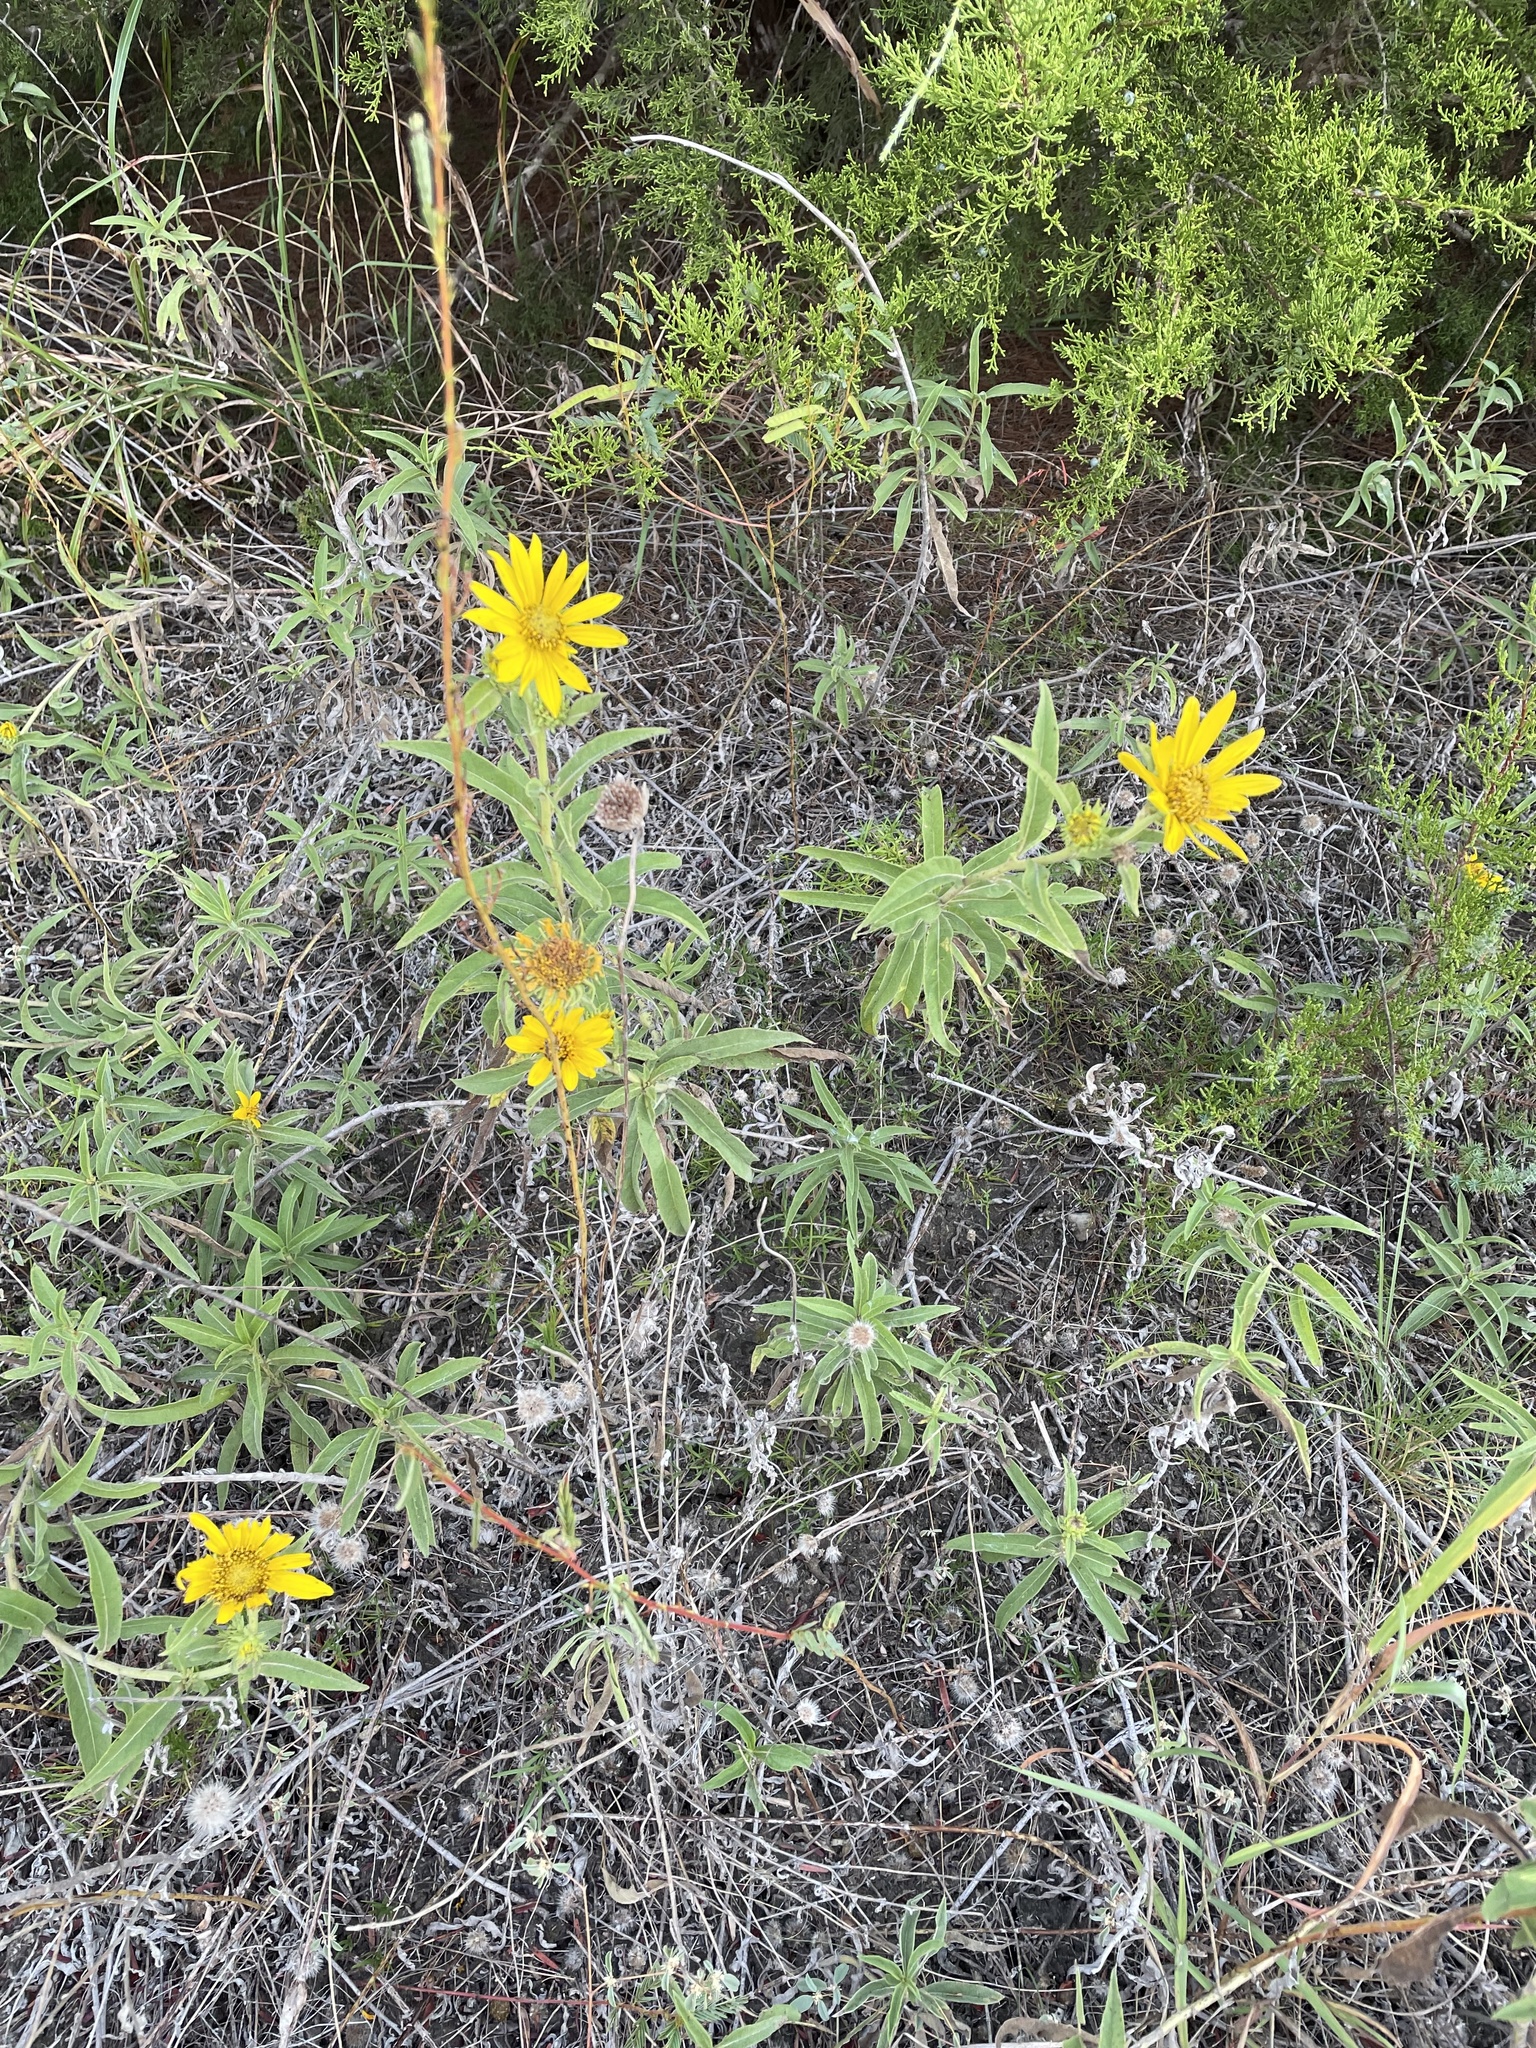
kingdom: Plantae
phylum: Tracheophyta
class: Magnoliopsida
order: Asterales
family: Asteraceae
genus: Helianthus
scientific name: Helianthus maximiliani
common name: Maximilian's sunflower
